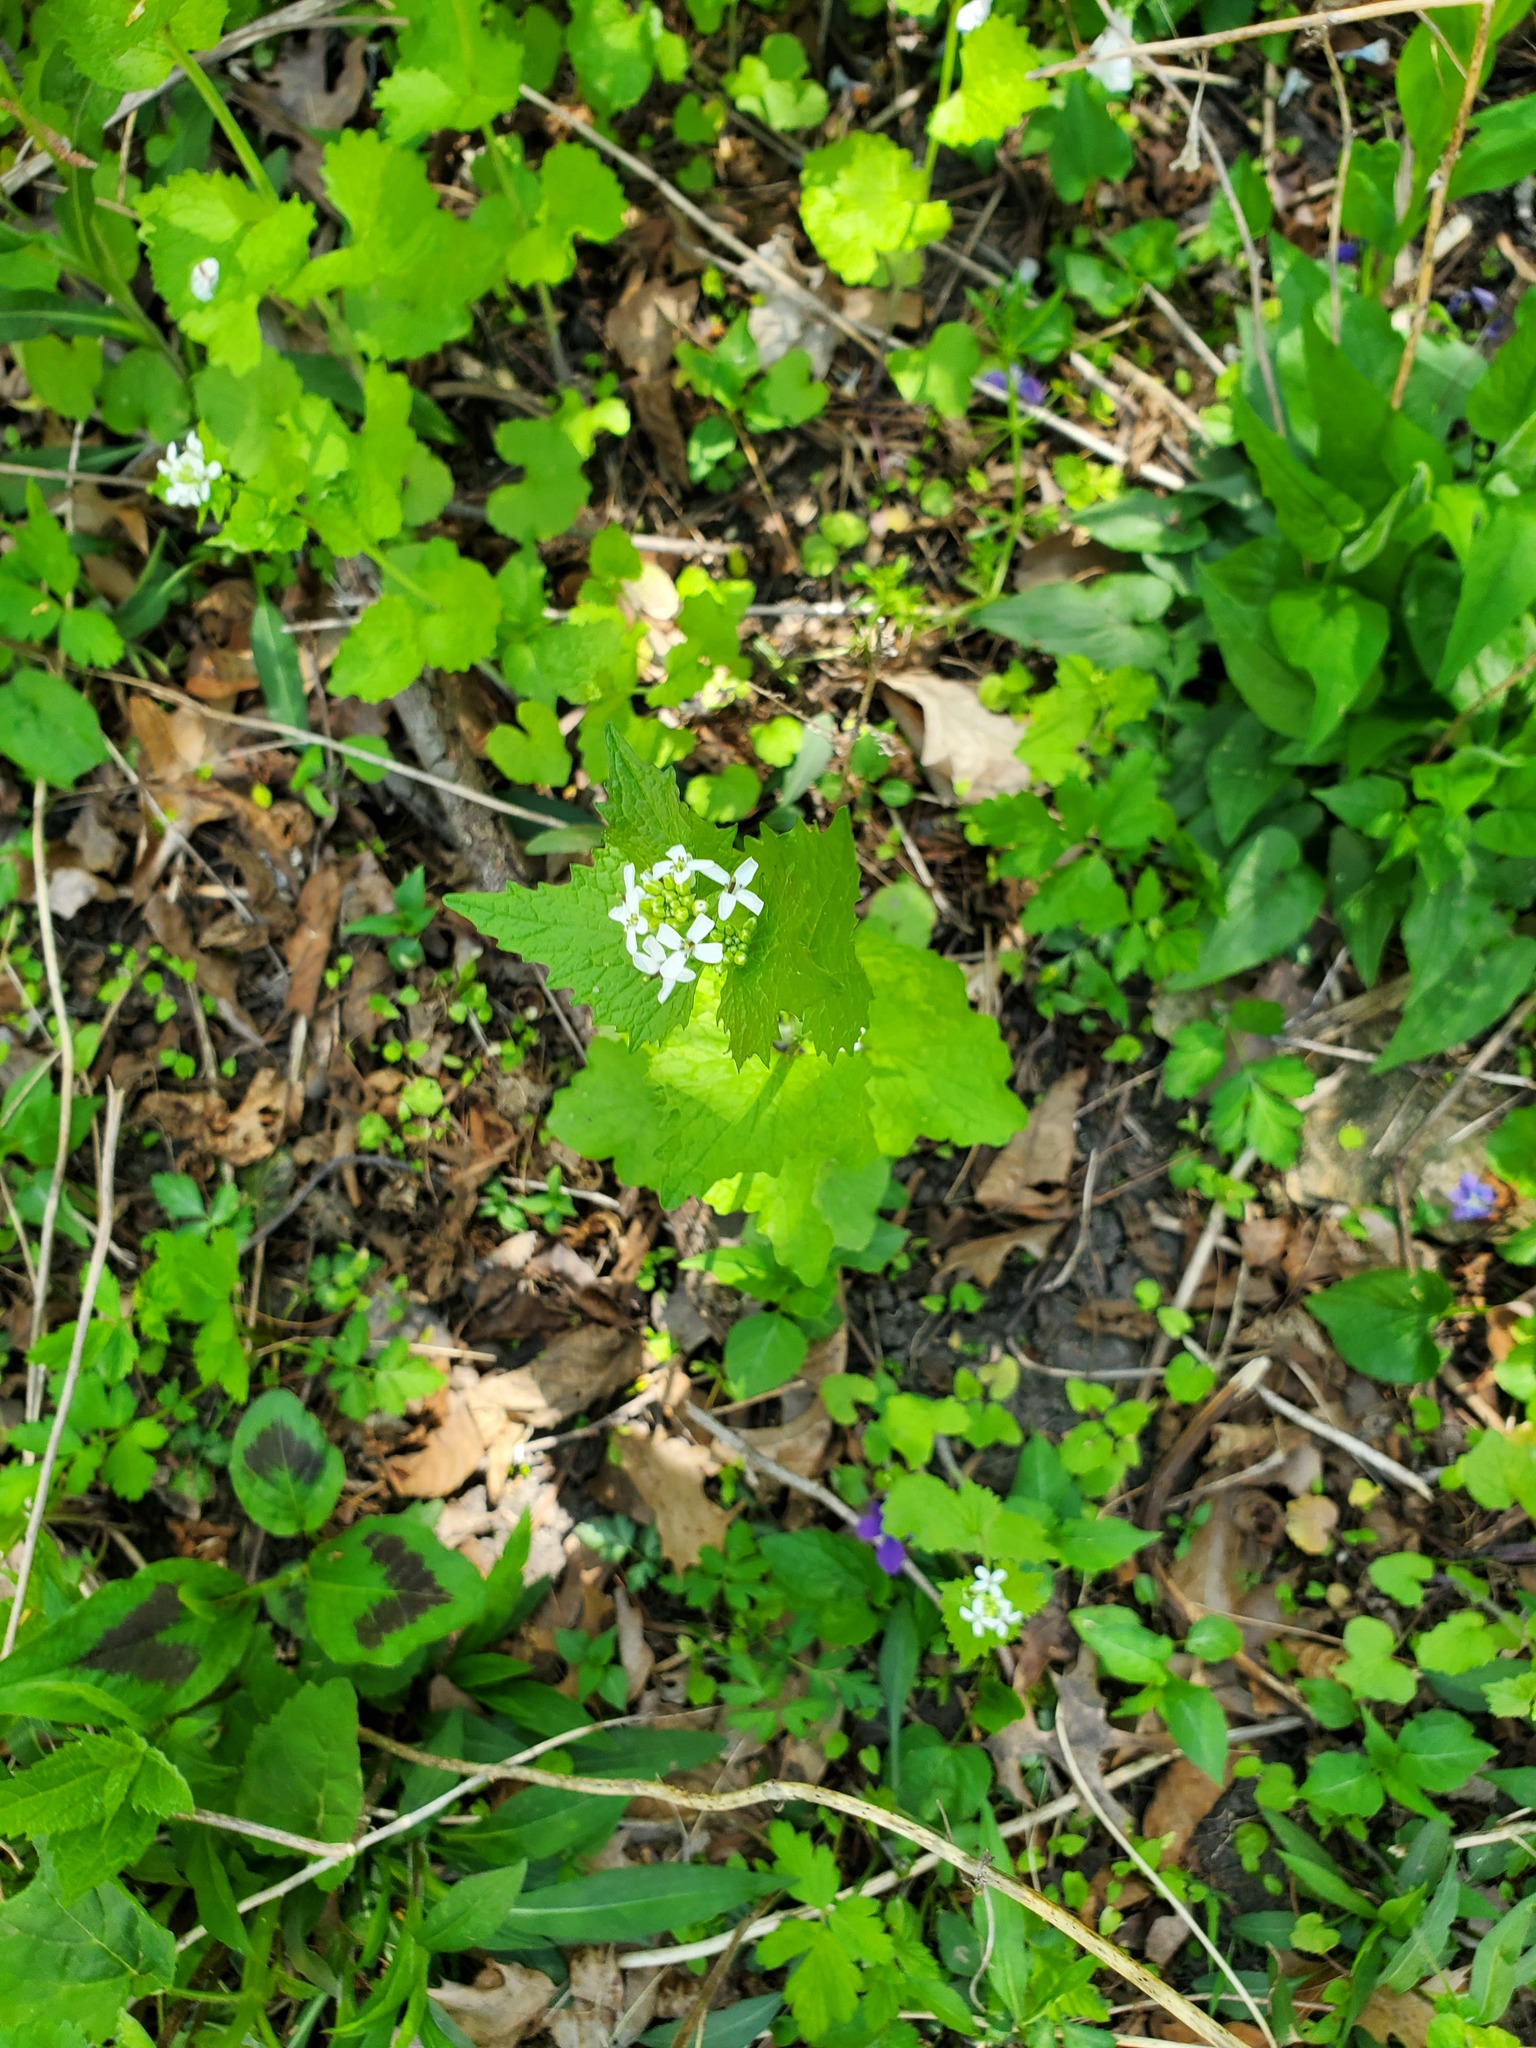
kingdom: Plantae
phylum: Tracheophyta
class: Magnoliopsida
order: Brassicales
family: Brassicaceae
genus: Alliaria
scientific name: Alliaria petiolata
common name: Garlic mustard
